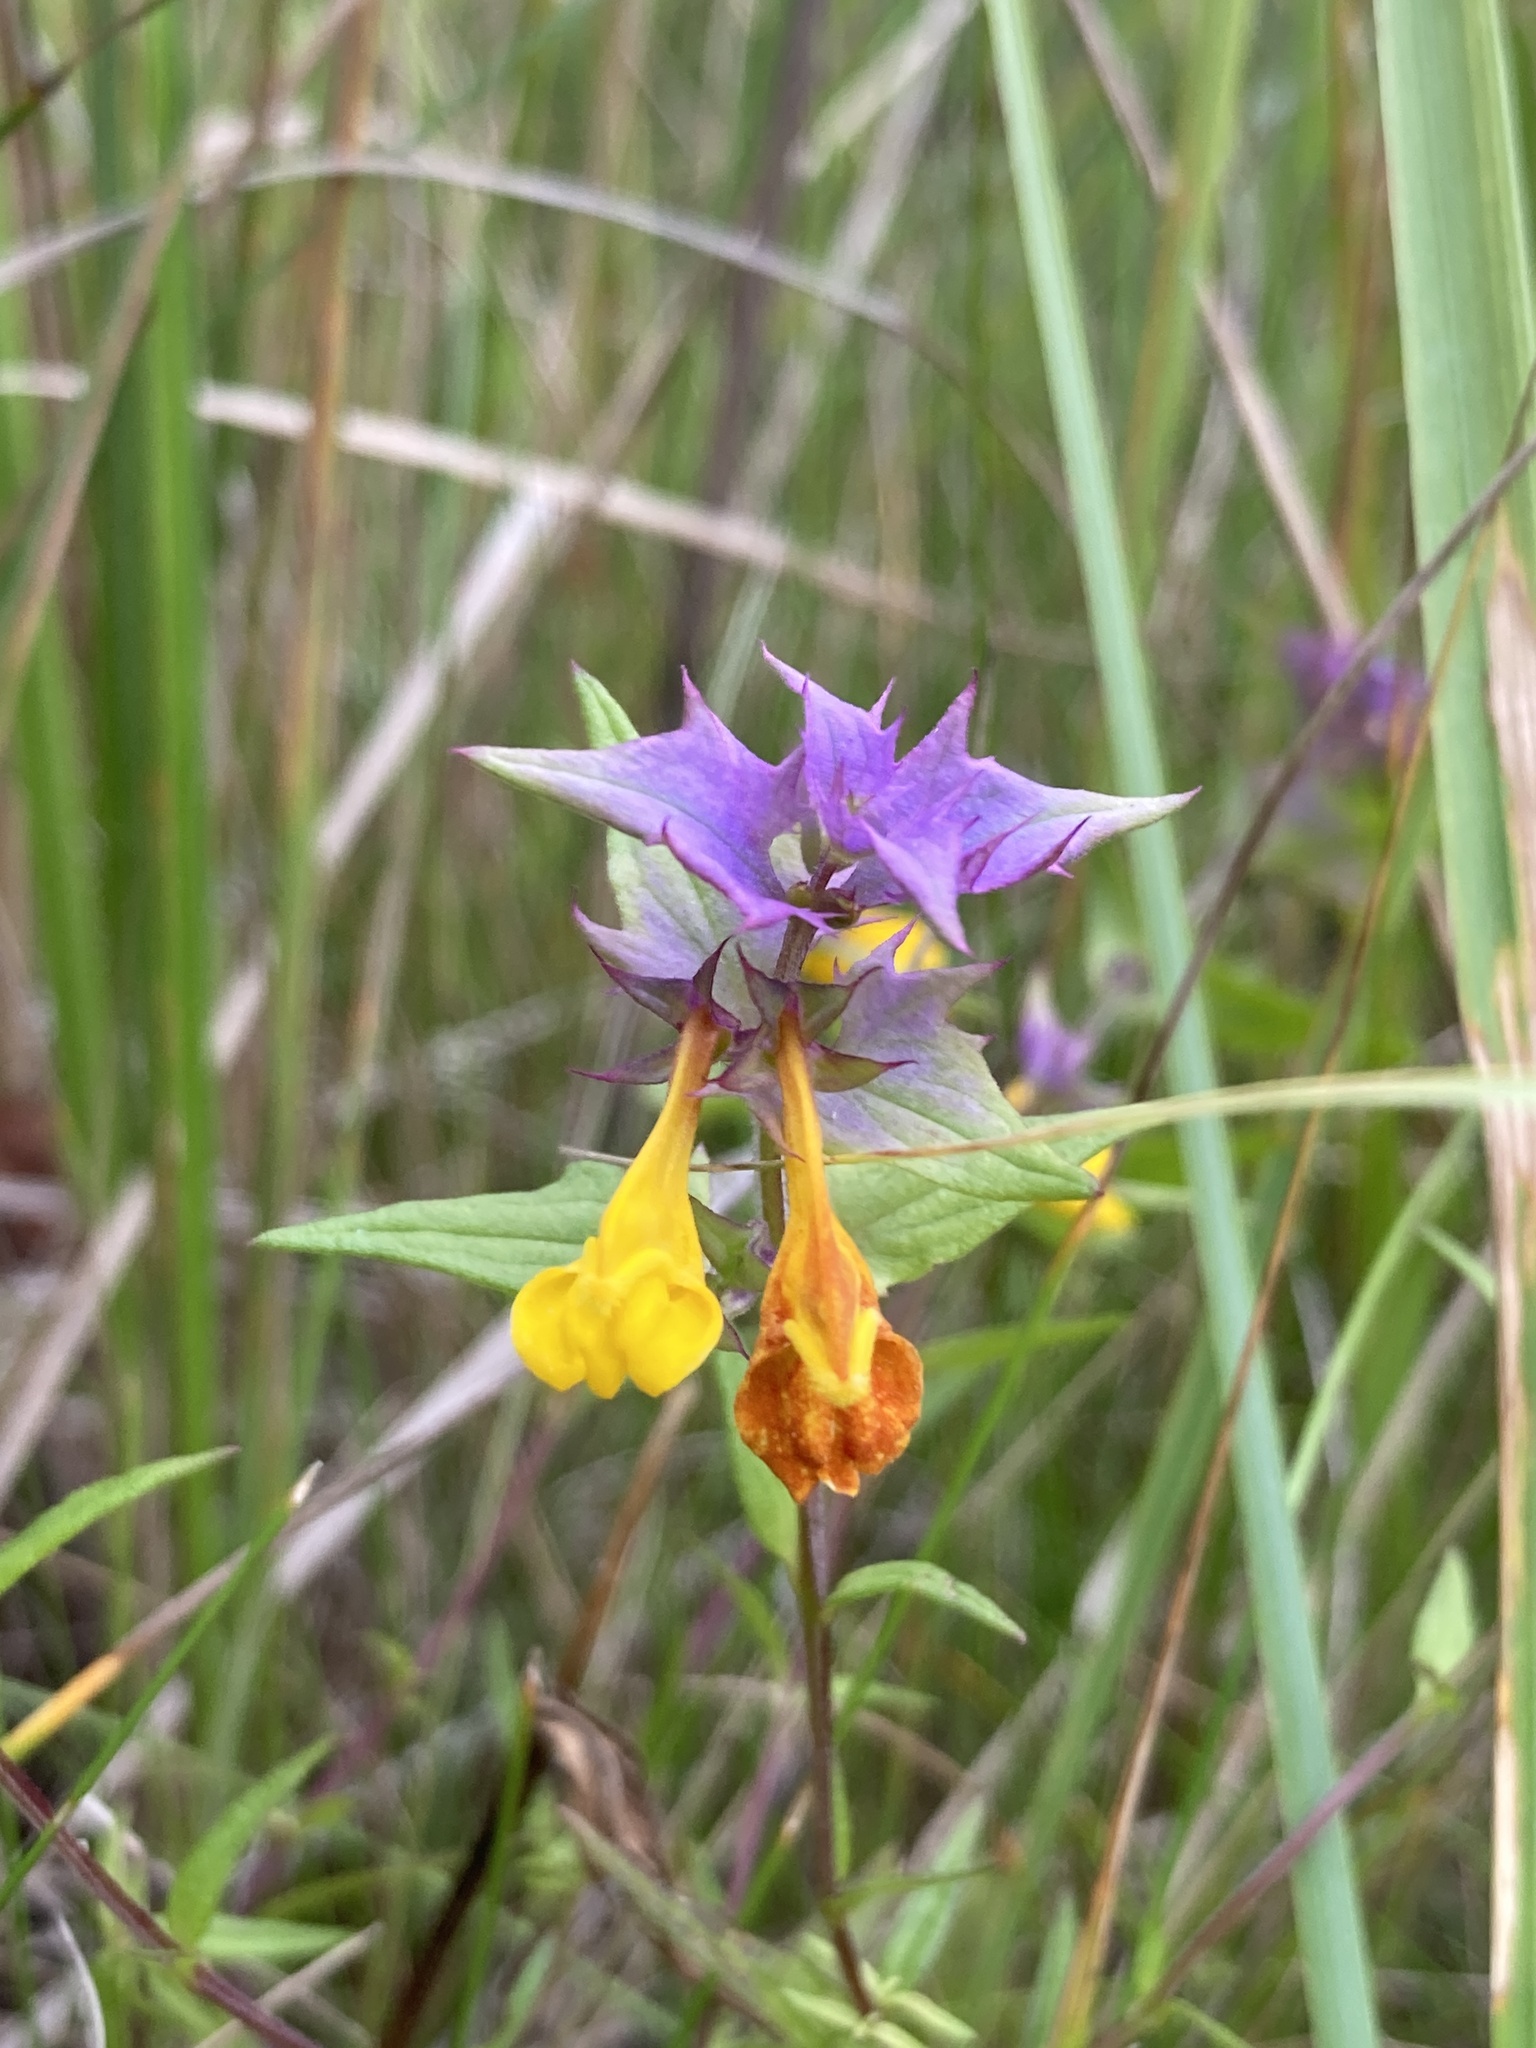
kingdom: Plantae
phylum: Tracheophyta
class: Magnoliopsida
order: Lamiales
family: Orobanchaceae
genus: Melampyrum
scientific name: Melampyrum nemorosum
